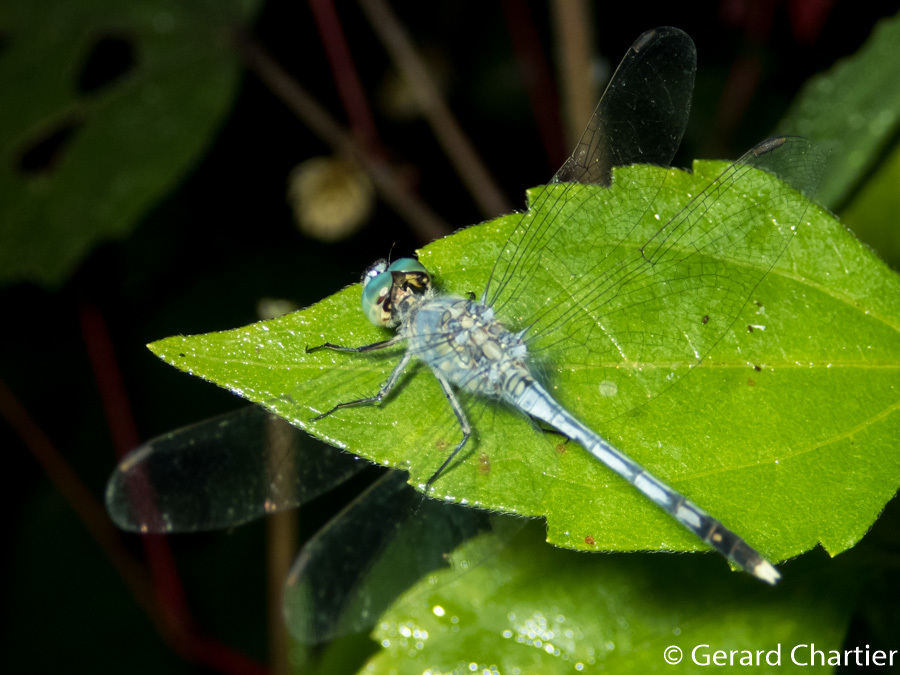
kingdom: Animalia
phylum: Arthropoda
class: Insecta
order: Odonata
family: Libellulidae
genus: Diplacodes
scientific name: Diplacodes trivialis
